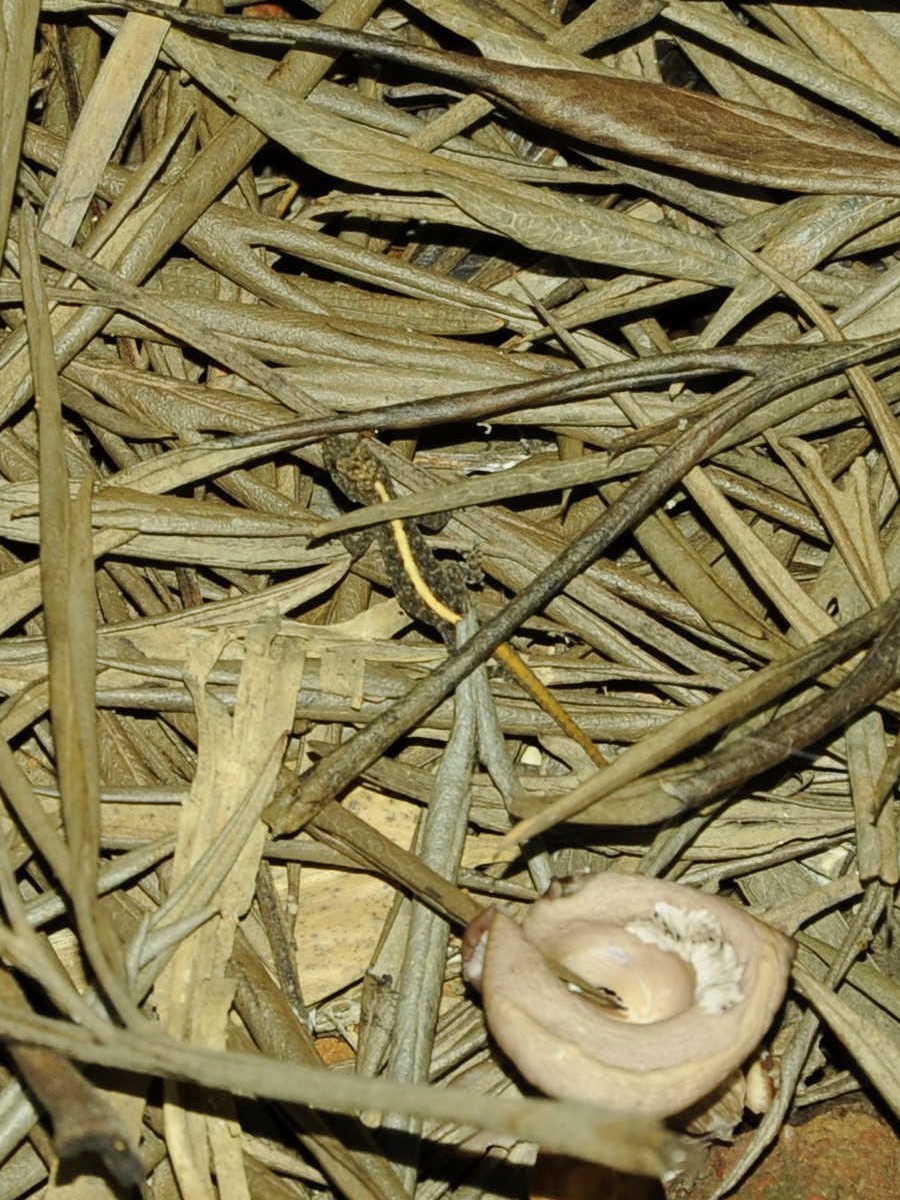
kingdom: Animalia
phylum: Chordata
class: Squamata
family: Gekkonidae
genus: Cnemaspis
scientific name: Cnemaspis mysoriensis
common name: Mysore day gecko
